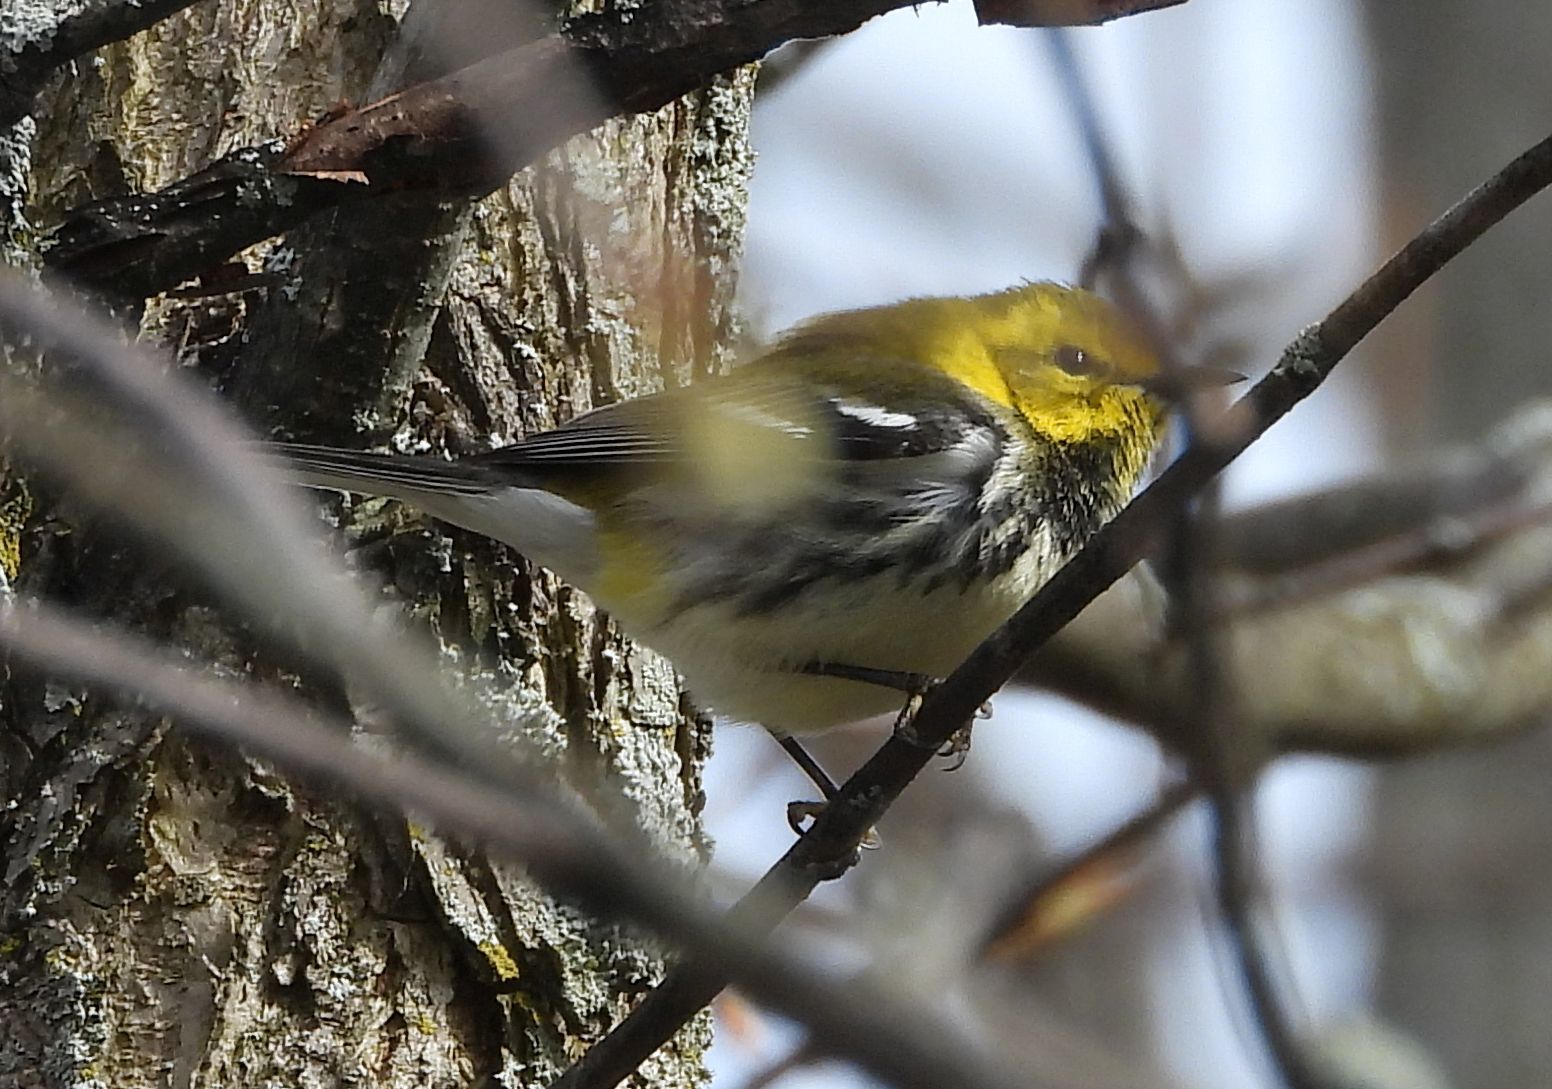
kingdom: Animalia
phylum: Chordata
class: Aves
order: Passeriformes
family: Parulidae
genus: Setophaga
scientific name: Setophaga virens
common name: Black-throated green warbler
